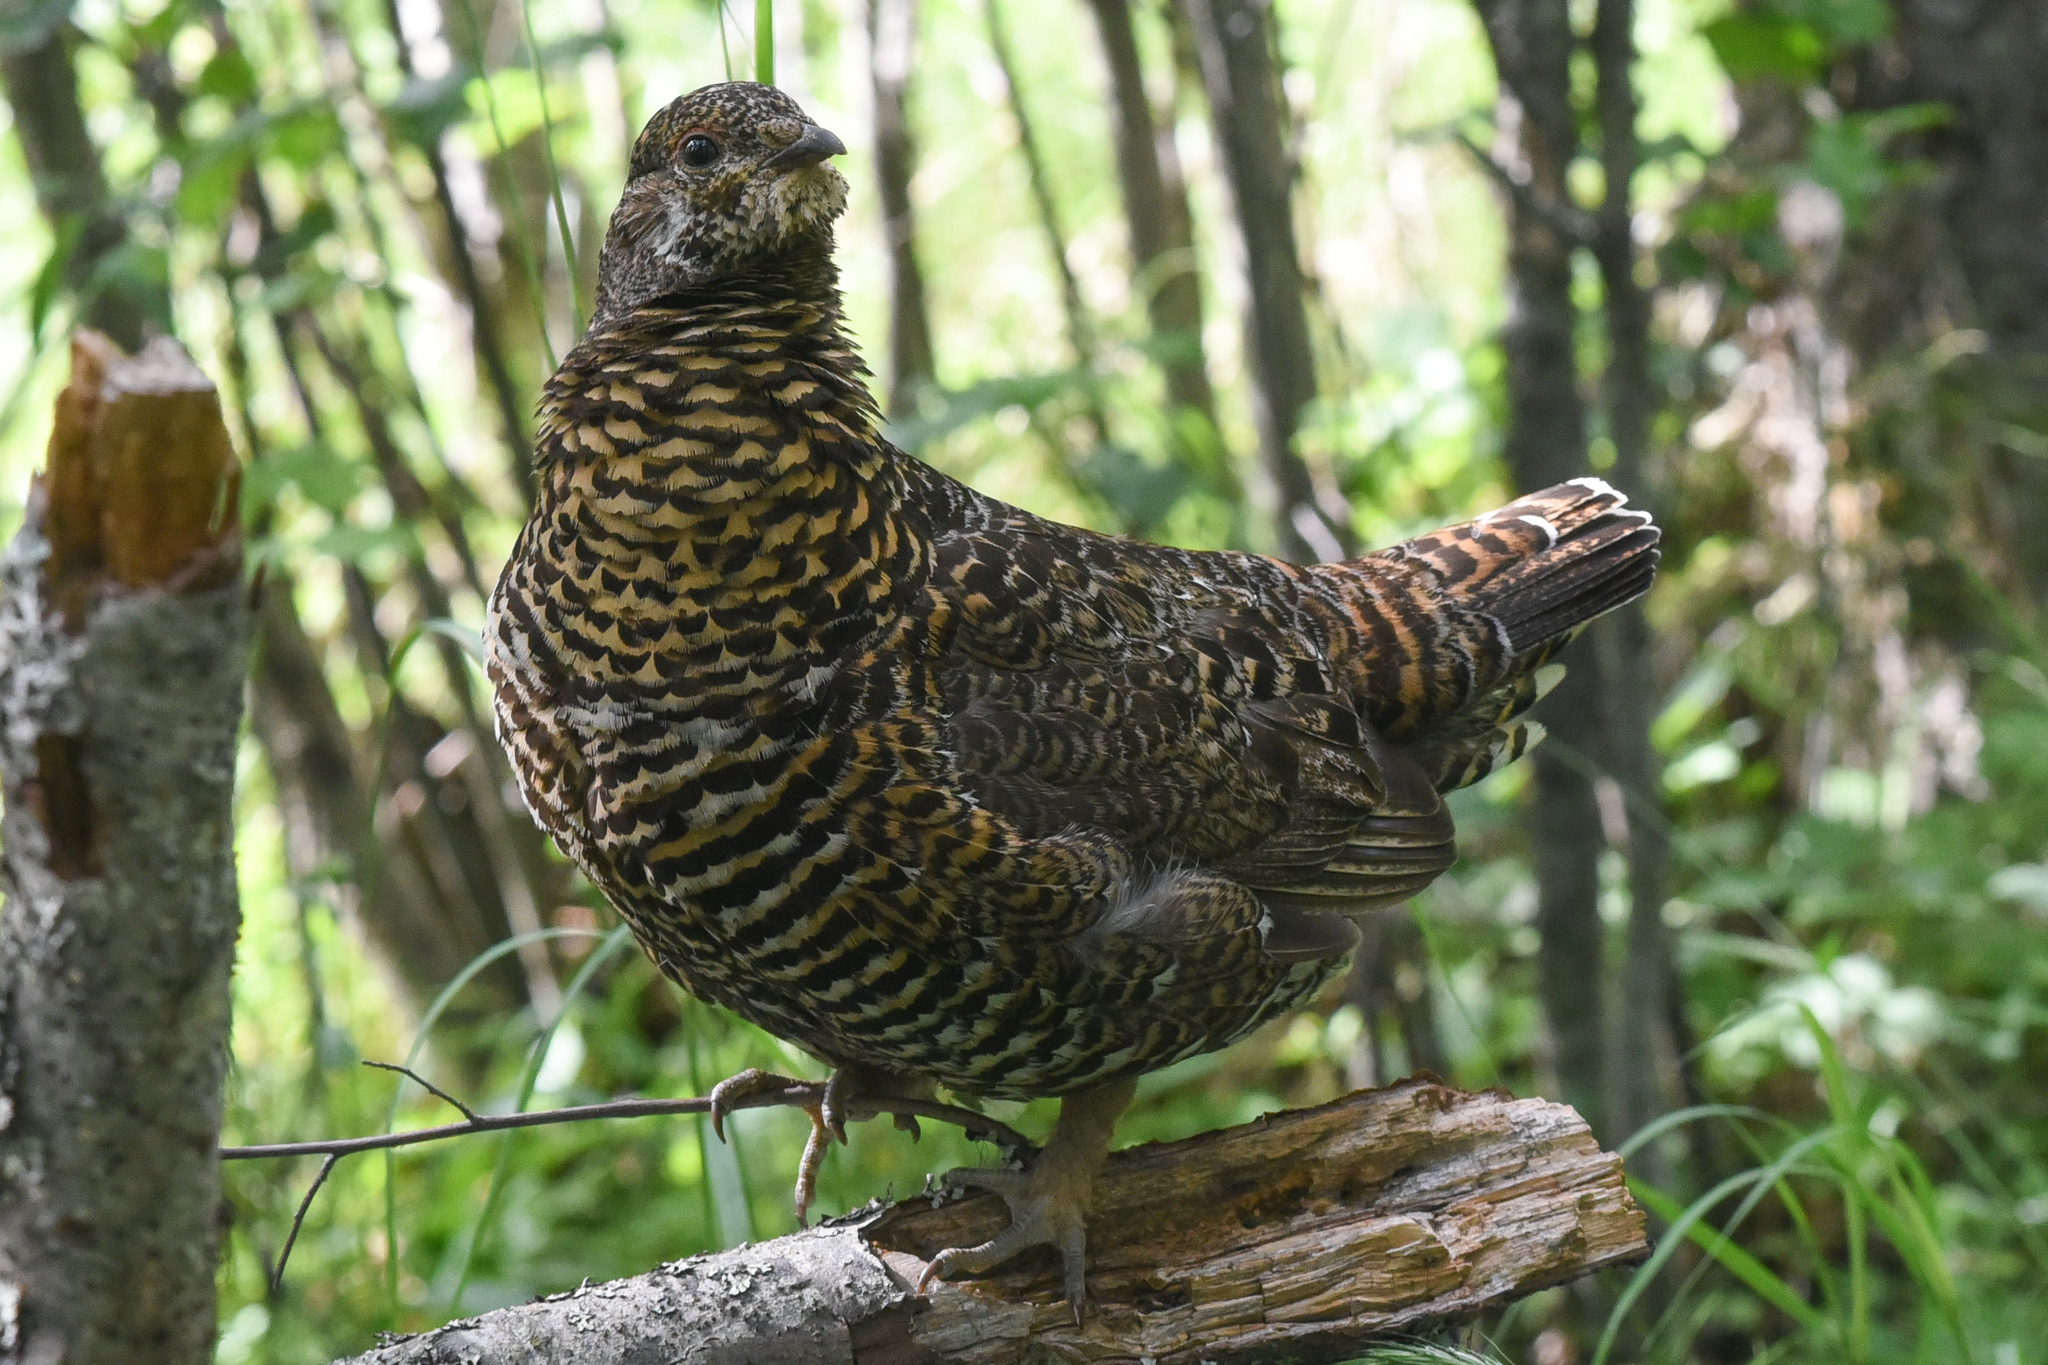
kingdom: Animalia
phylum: Chordata
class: Aves
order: Galliformes
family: Phasianidae
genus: Canachites
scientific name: Canachites canadensis
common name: Spruce grouse
